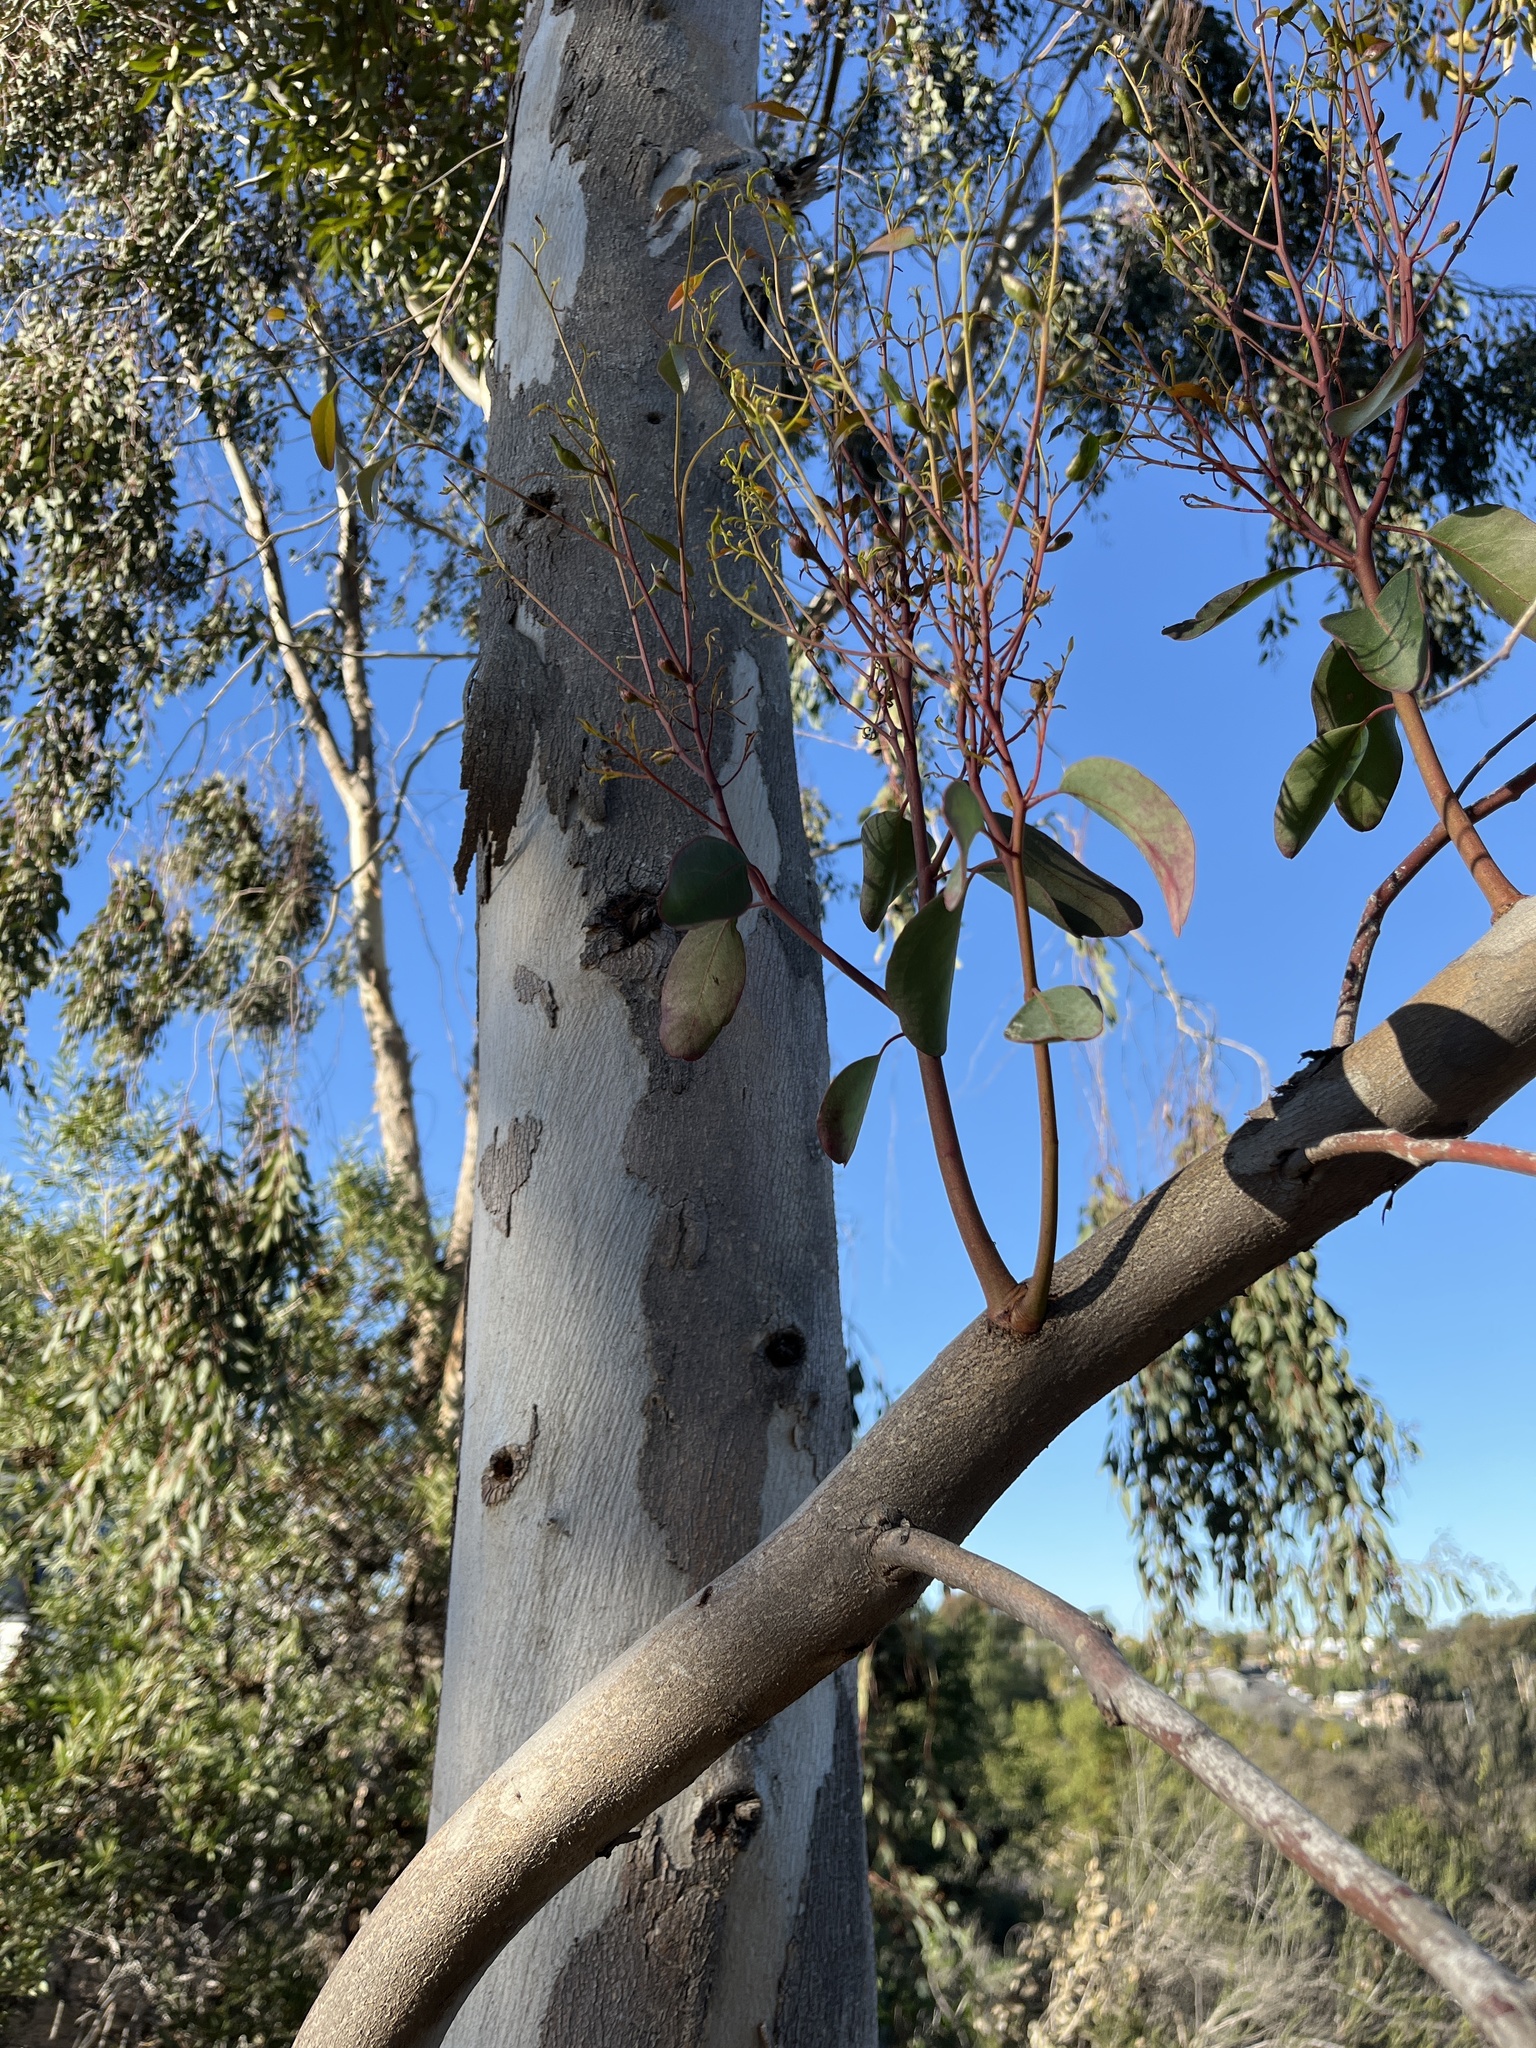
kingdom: Plantae
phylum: Tracheophyta
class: Magnoliopsida
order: Myrtales
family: Myrtaceae
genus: Eucalyptus
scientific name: Eucalyptus camaldulensis
